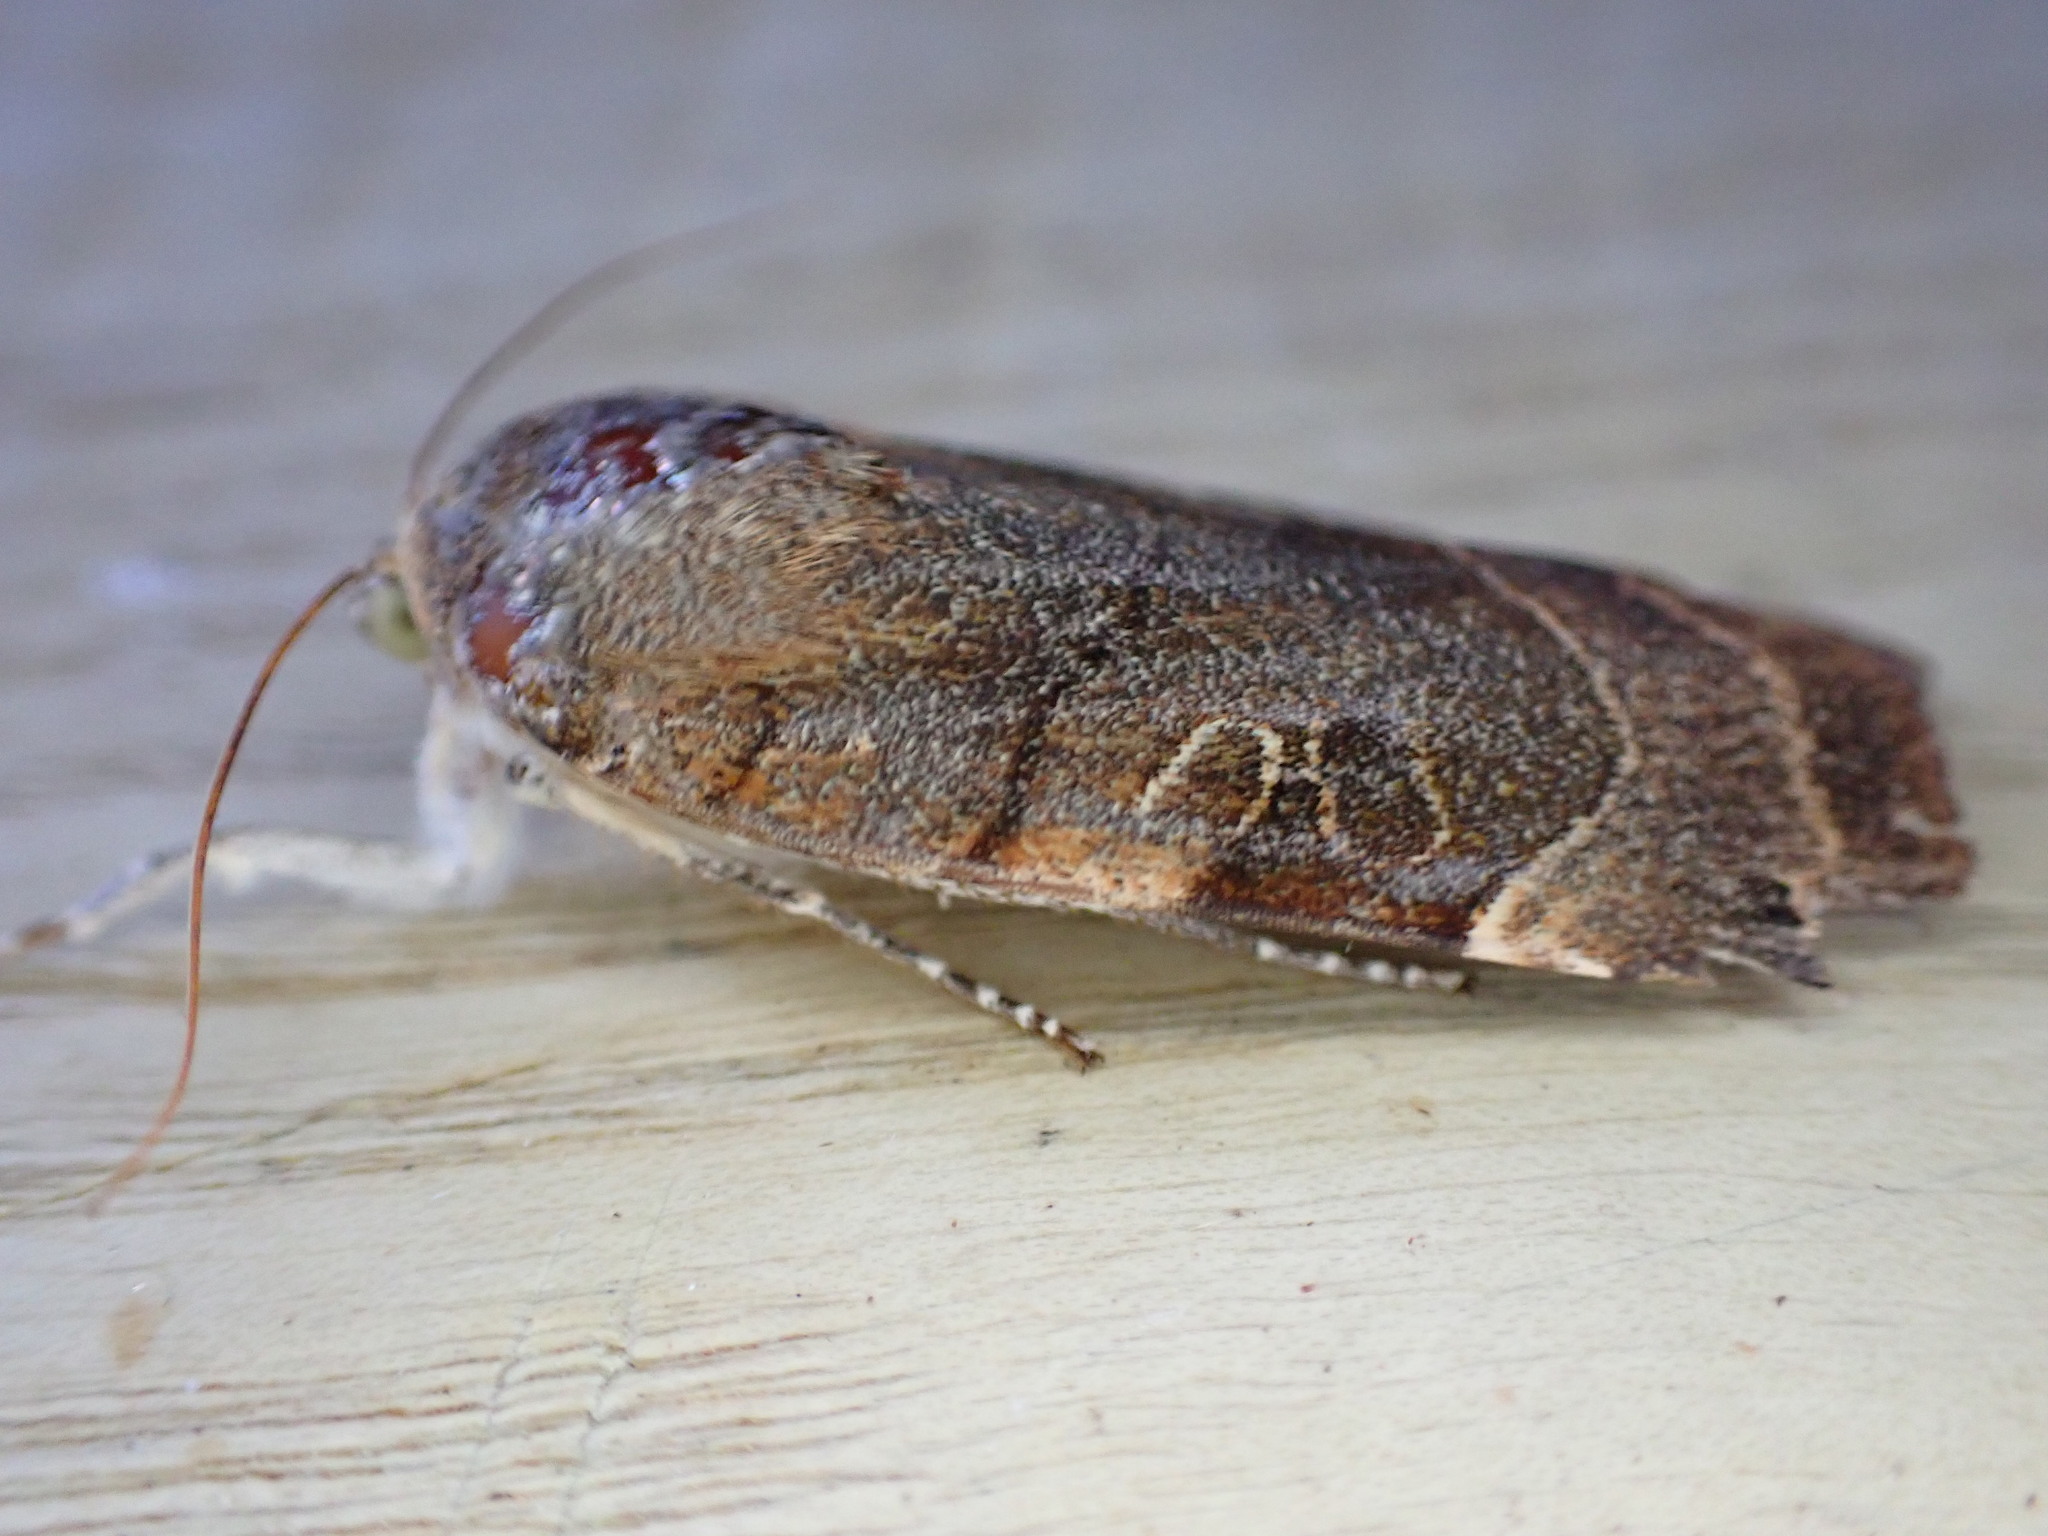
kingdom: Animalia
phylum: Arthropoda
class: Insecta
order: Lepidoptera
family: Noctuidae
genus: Noctua
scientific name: Noctua fimbriata
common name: Broad-bordered yellow underwing
